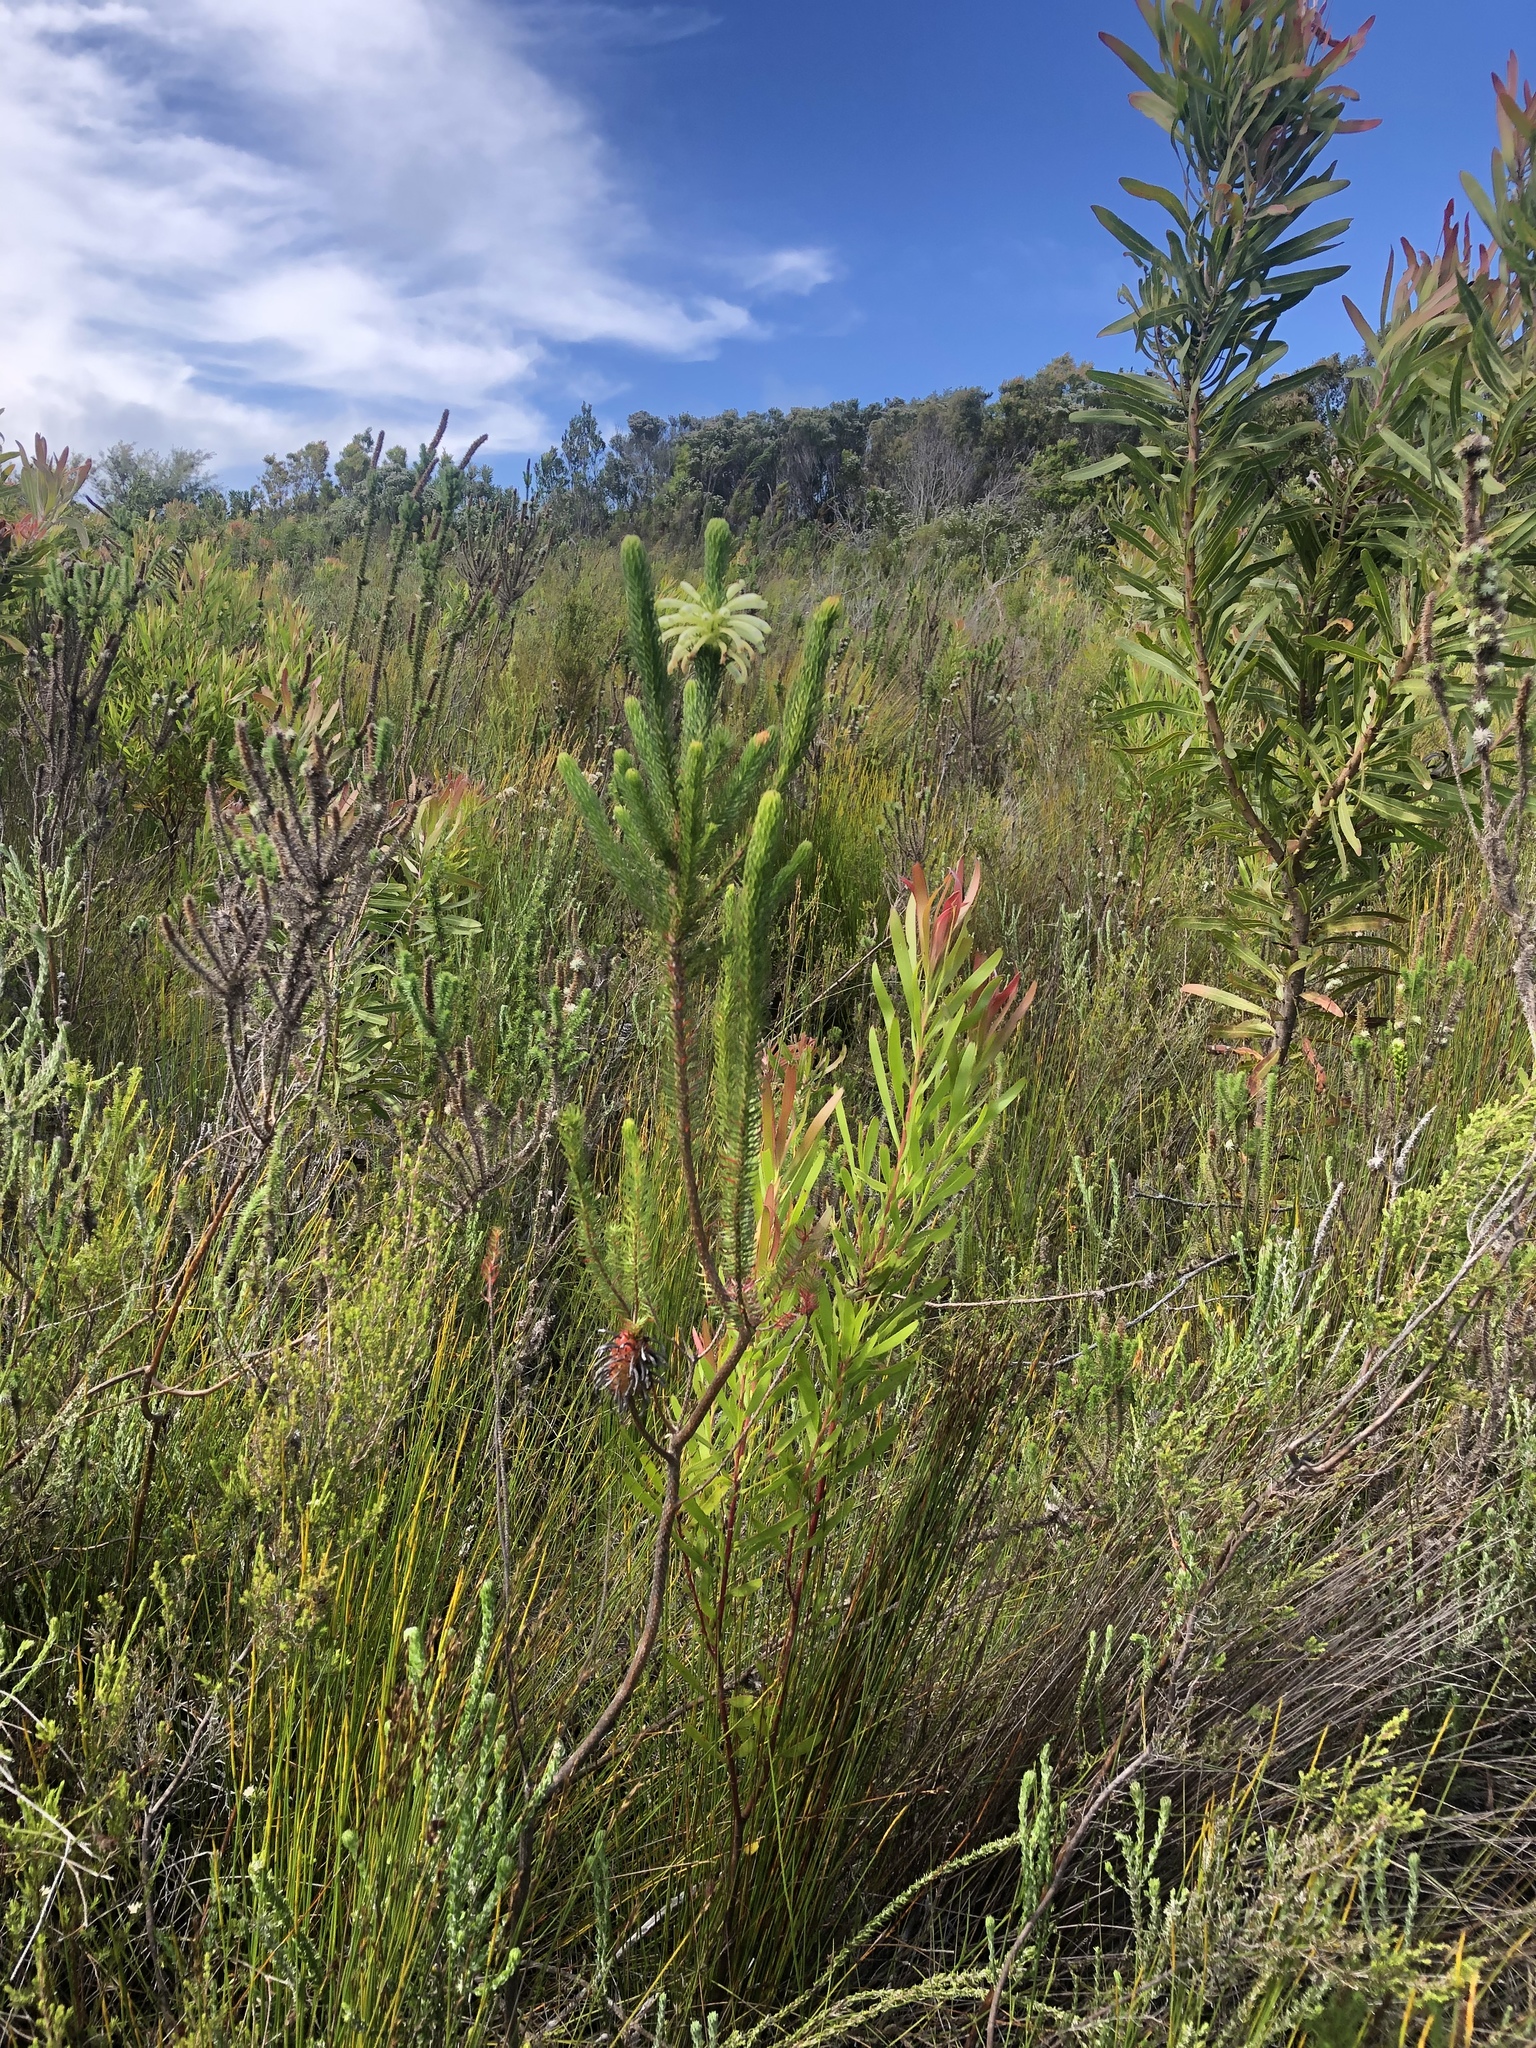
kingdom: Plantae
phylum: Tracheophyta
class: Magnoliopsida
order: Ericales
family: Ericaceae
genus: Erica
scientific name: Erica sessiliflora
